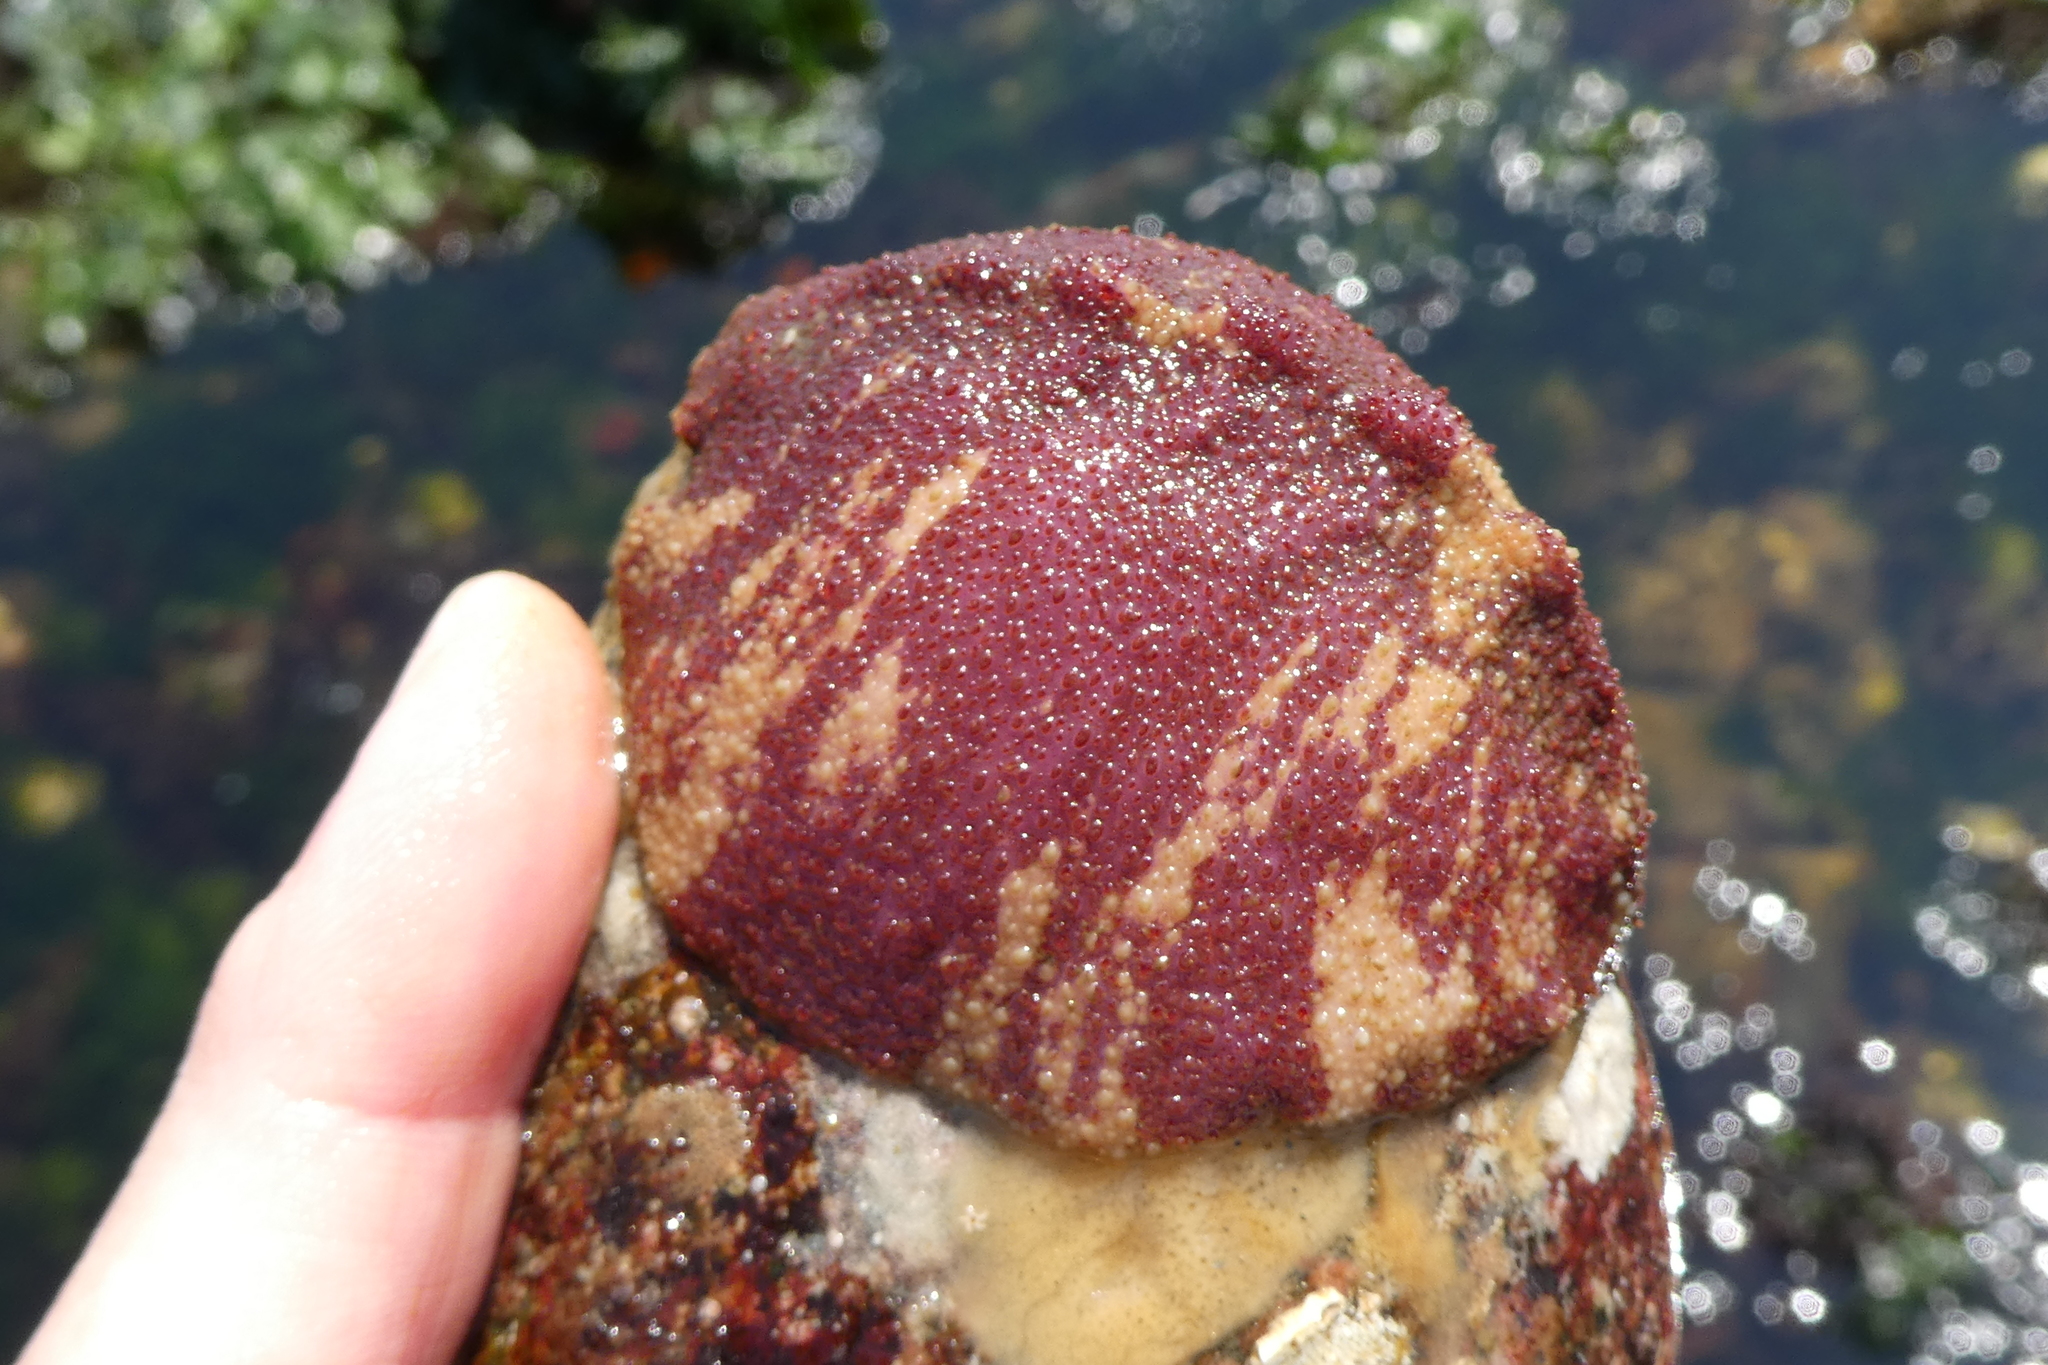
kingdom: Animalia
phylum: Mollusca
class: Polyplacophora
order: Chitonida
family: Acanthochitonidae
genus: Cryptochiton
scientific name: Cryptochiton stelleri
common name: Giant pacific chiton
